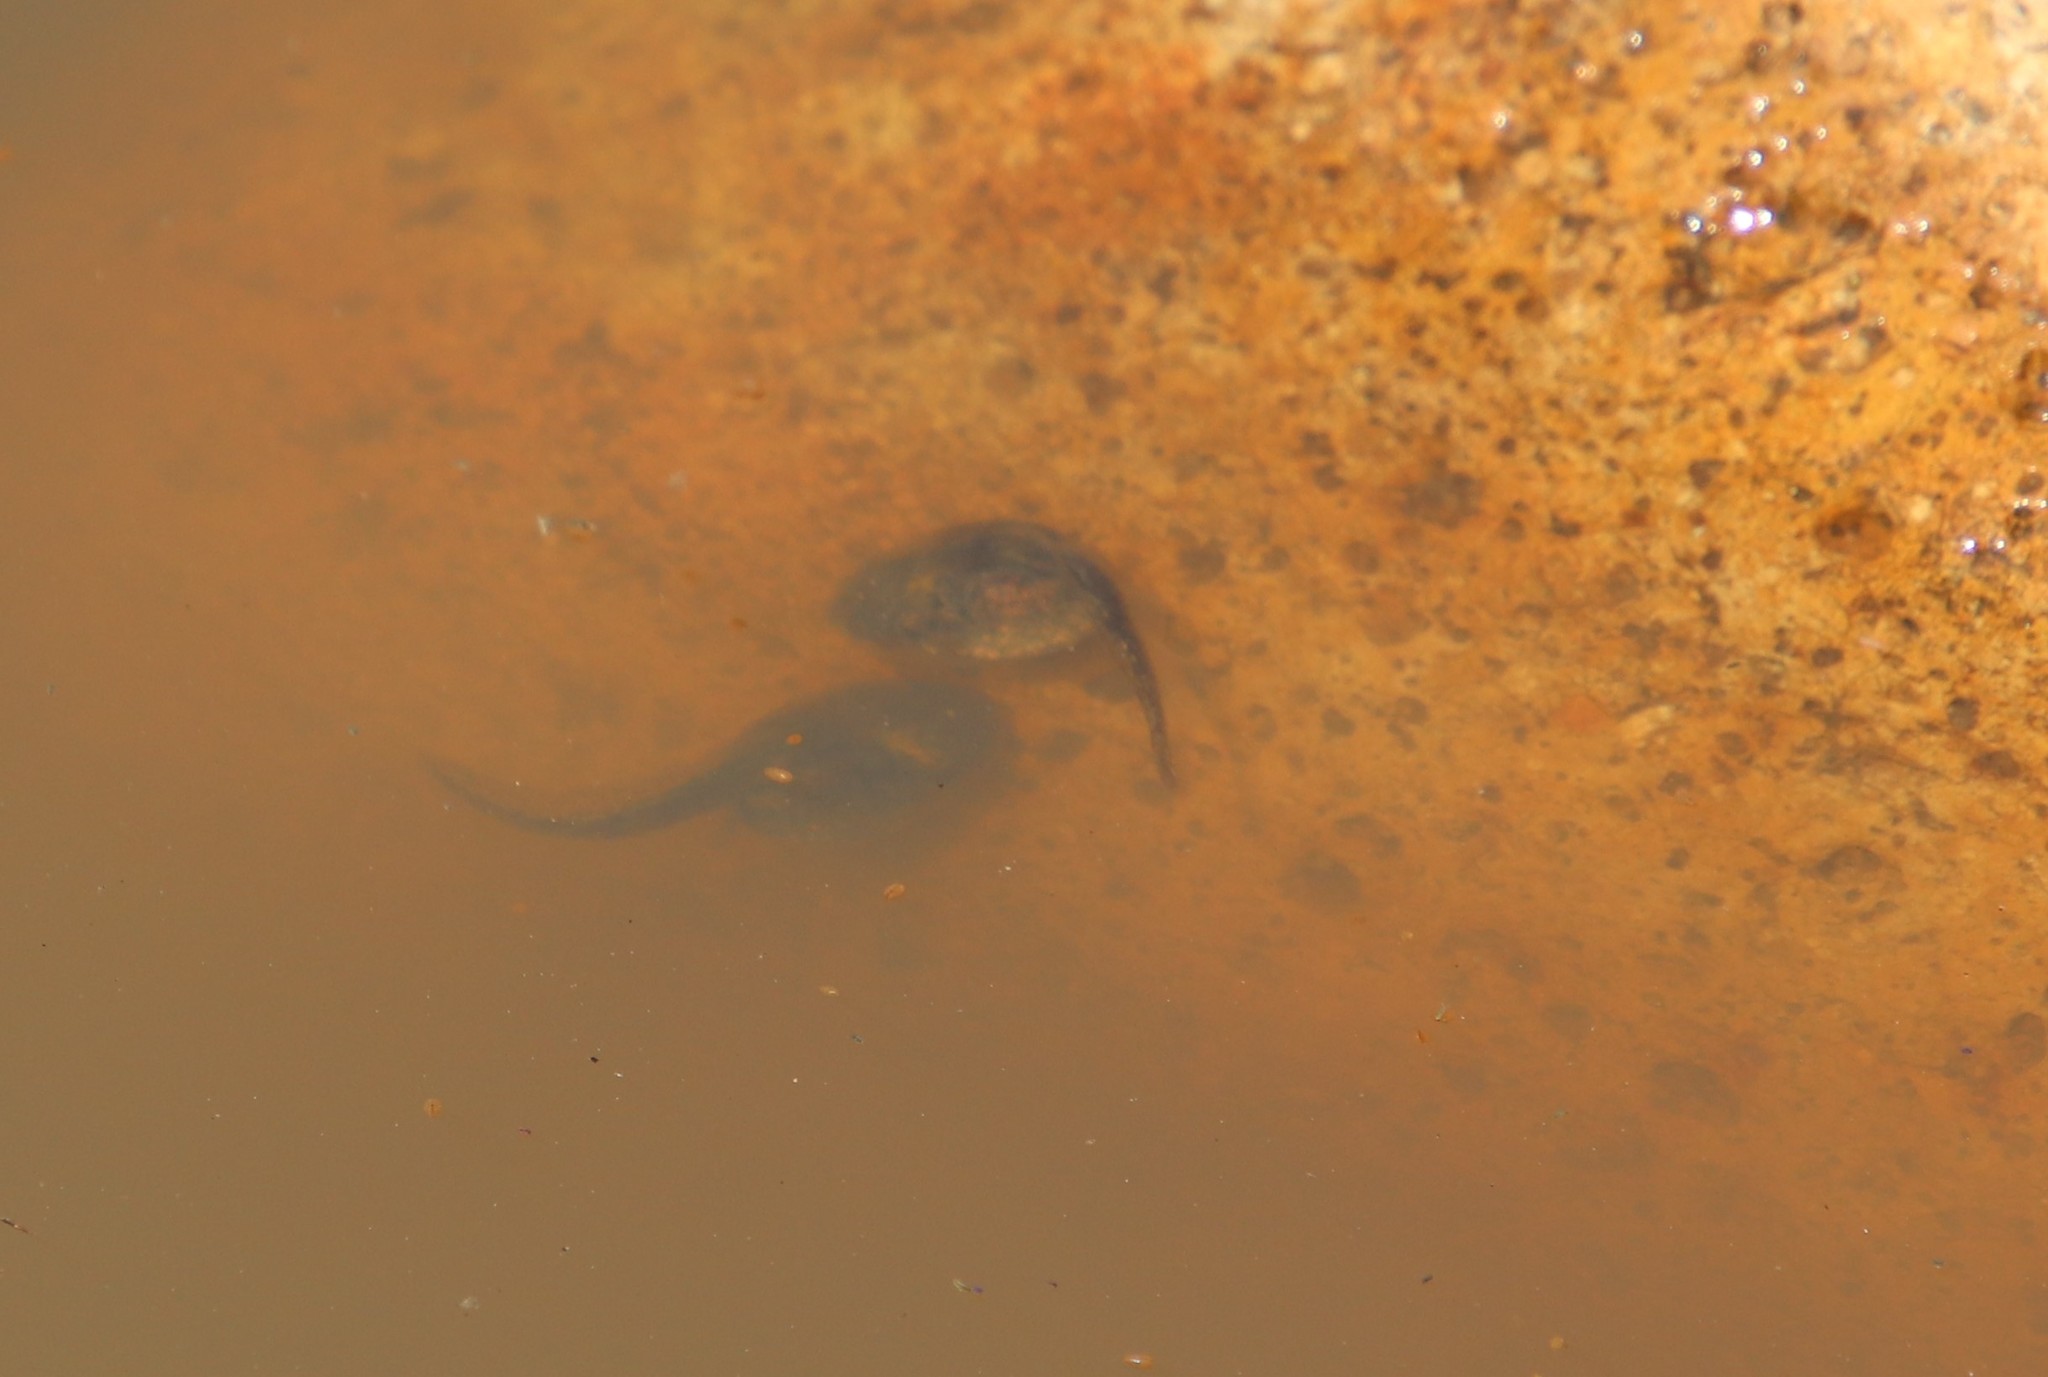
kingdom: Animalia
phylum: Chordata
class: Amphibia
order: Anura
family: Scaphiopodidae
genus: Spea
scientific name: Spea hammondii
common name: Western spadefoot toad
